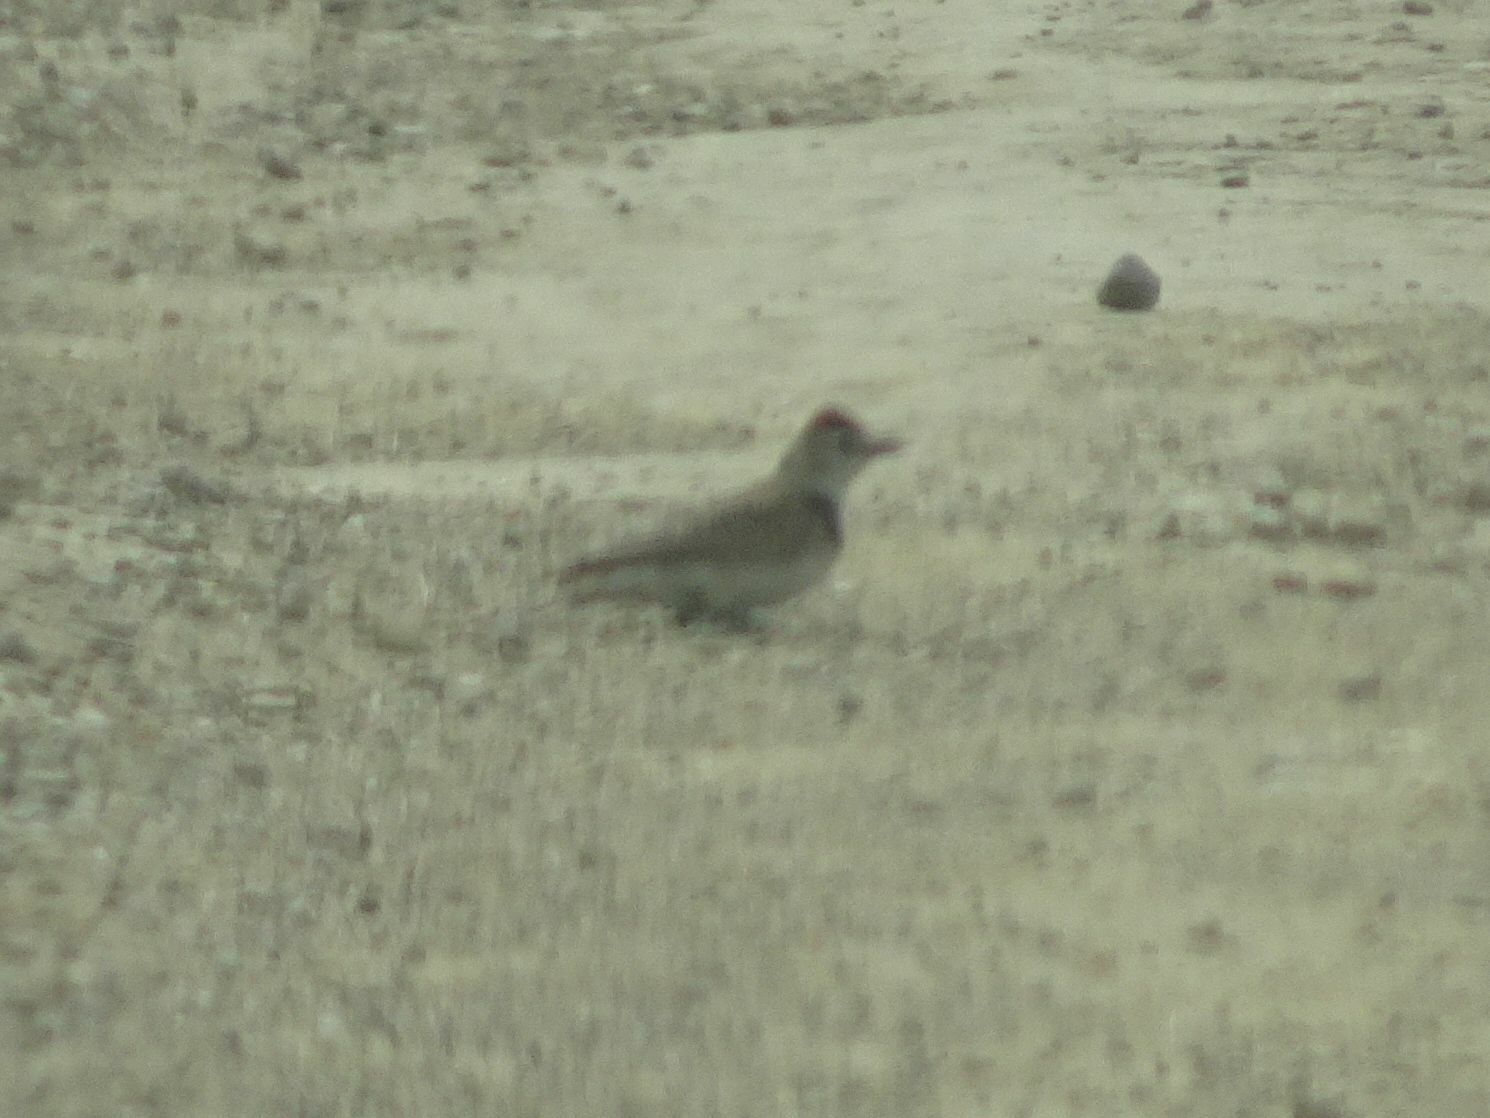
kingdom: Animalia
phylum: Chordata
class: Aves
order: Passeriformes
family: Alaudidae
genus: Calandrella
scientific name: Calandrella cinerea
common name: Red-capped lark
